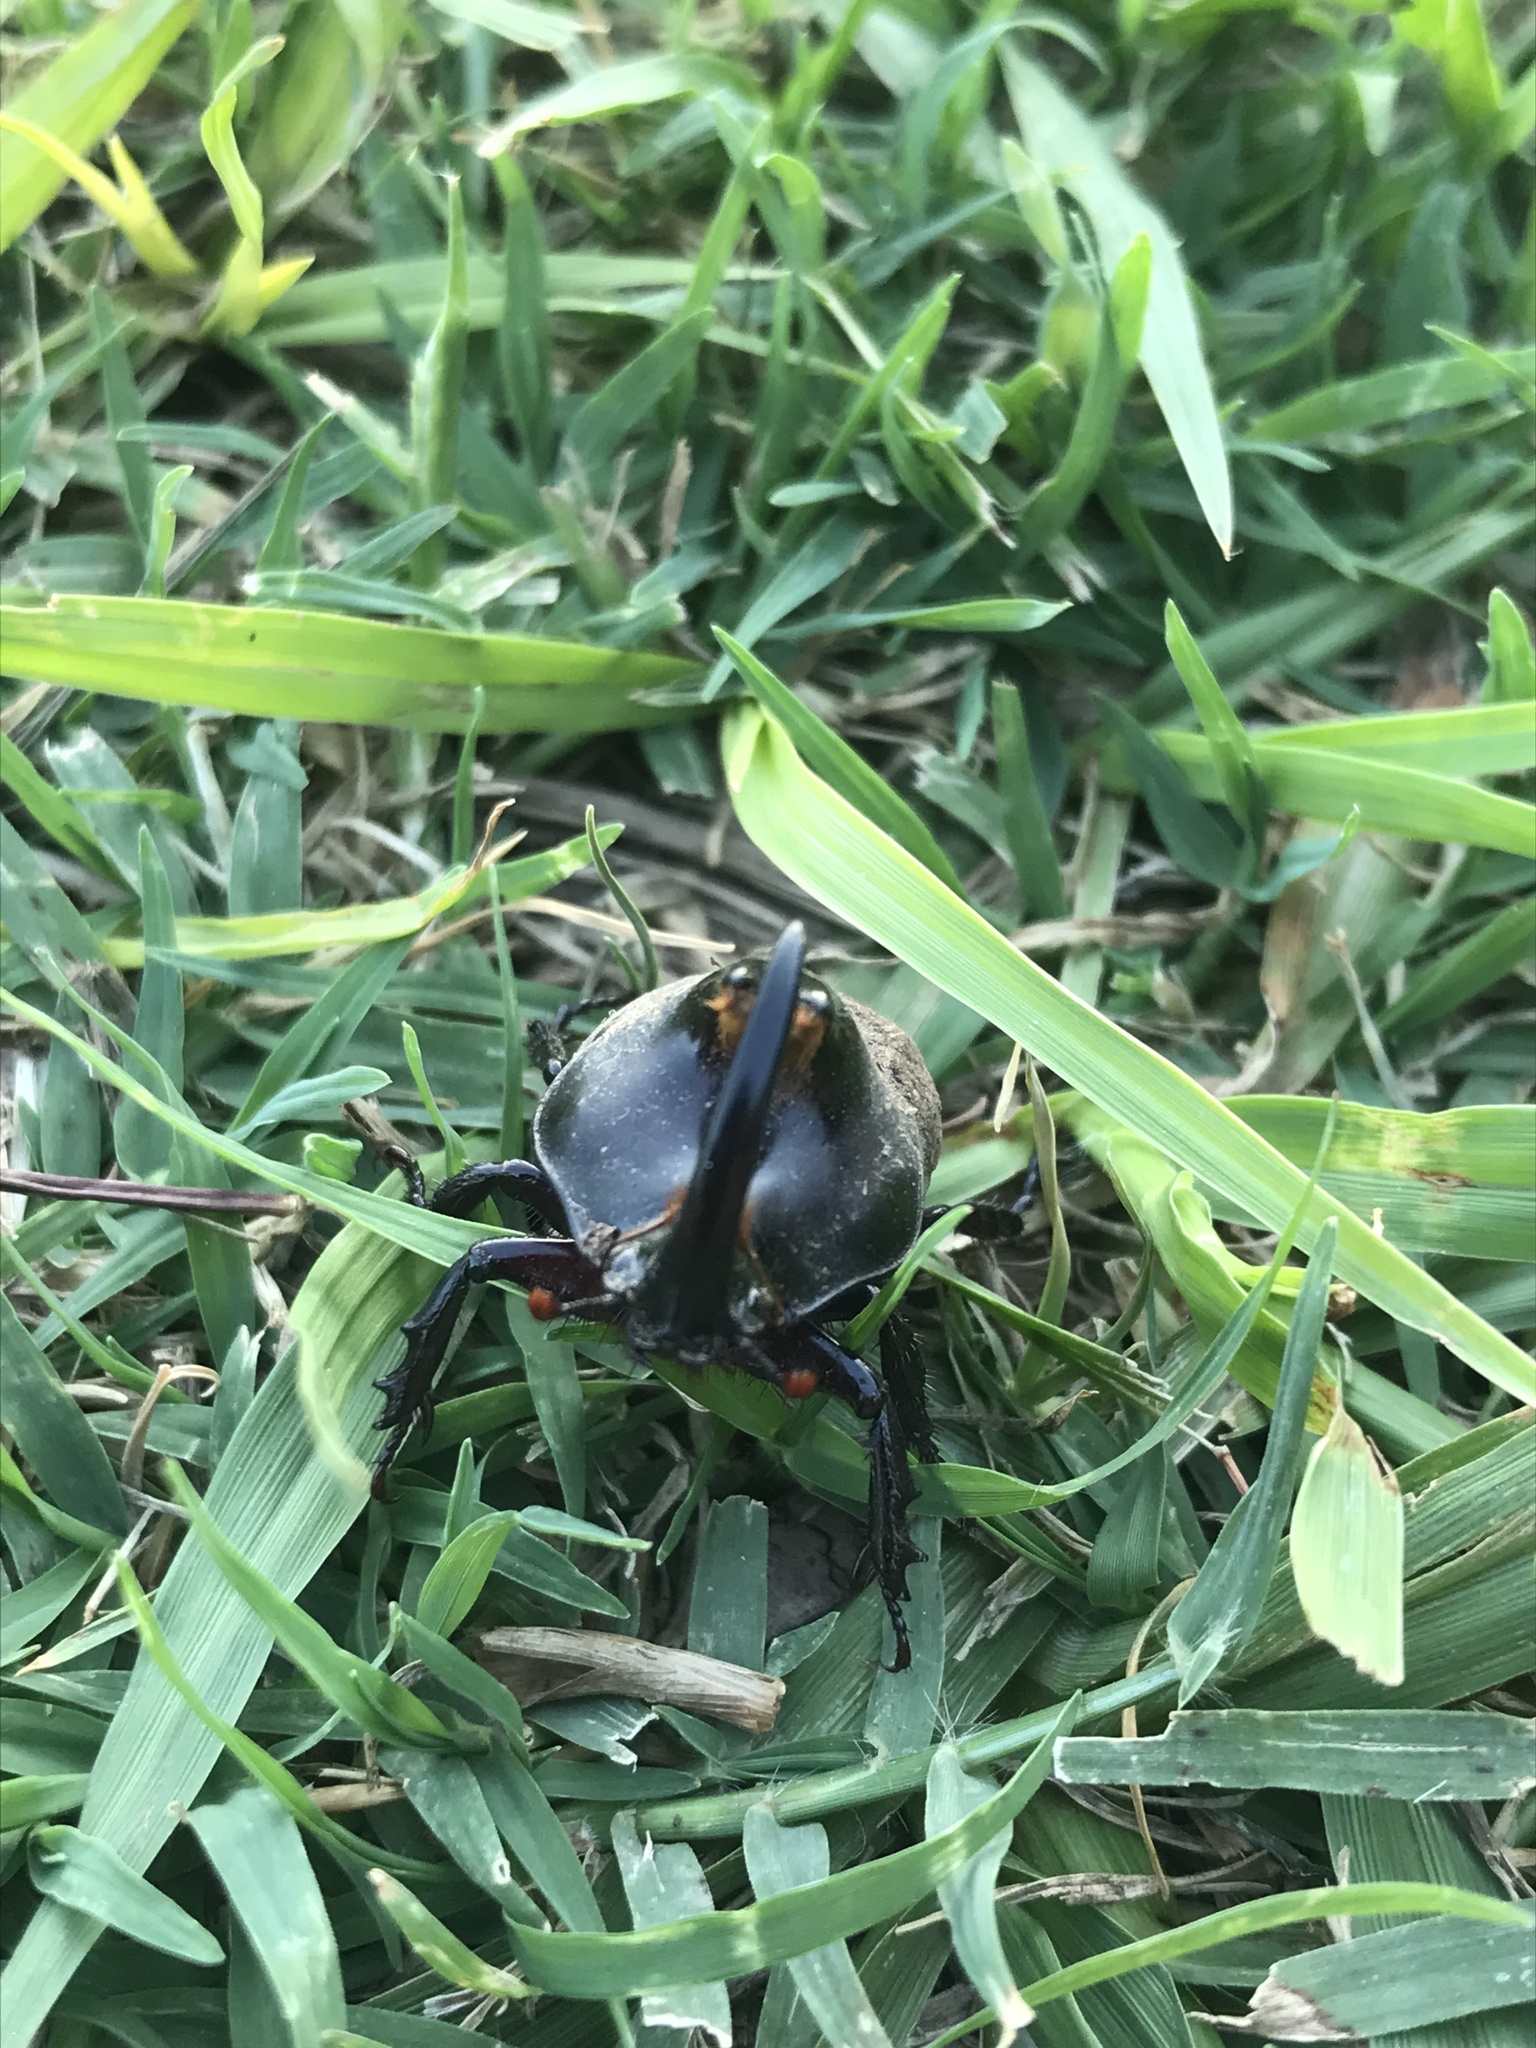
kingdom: Animalia
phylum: Arthropoda
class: Insecta
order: Coleoptera
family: Scarabaeidae
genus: Diloboderus
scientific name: Diloboderus abderus
